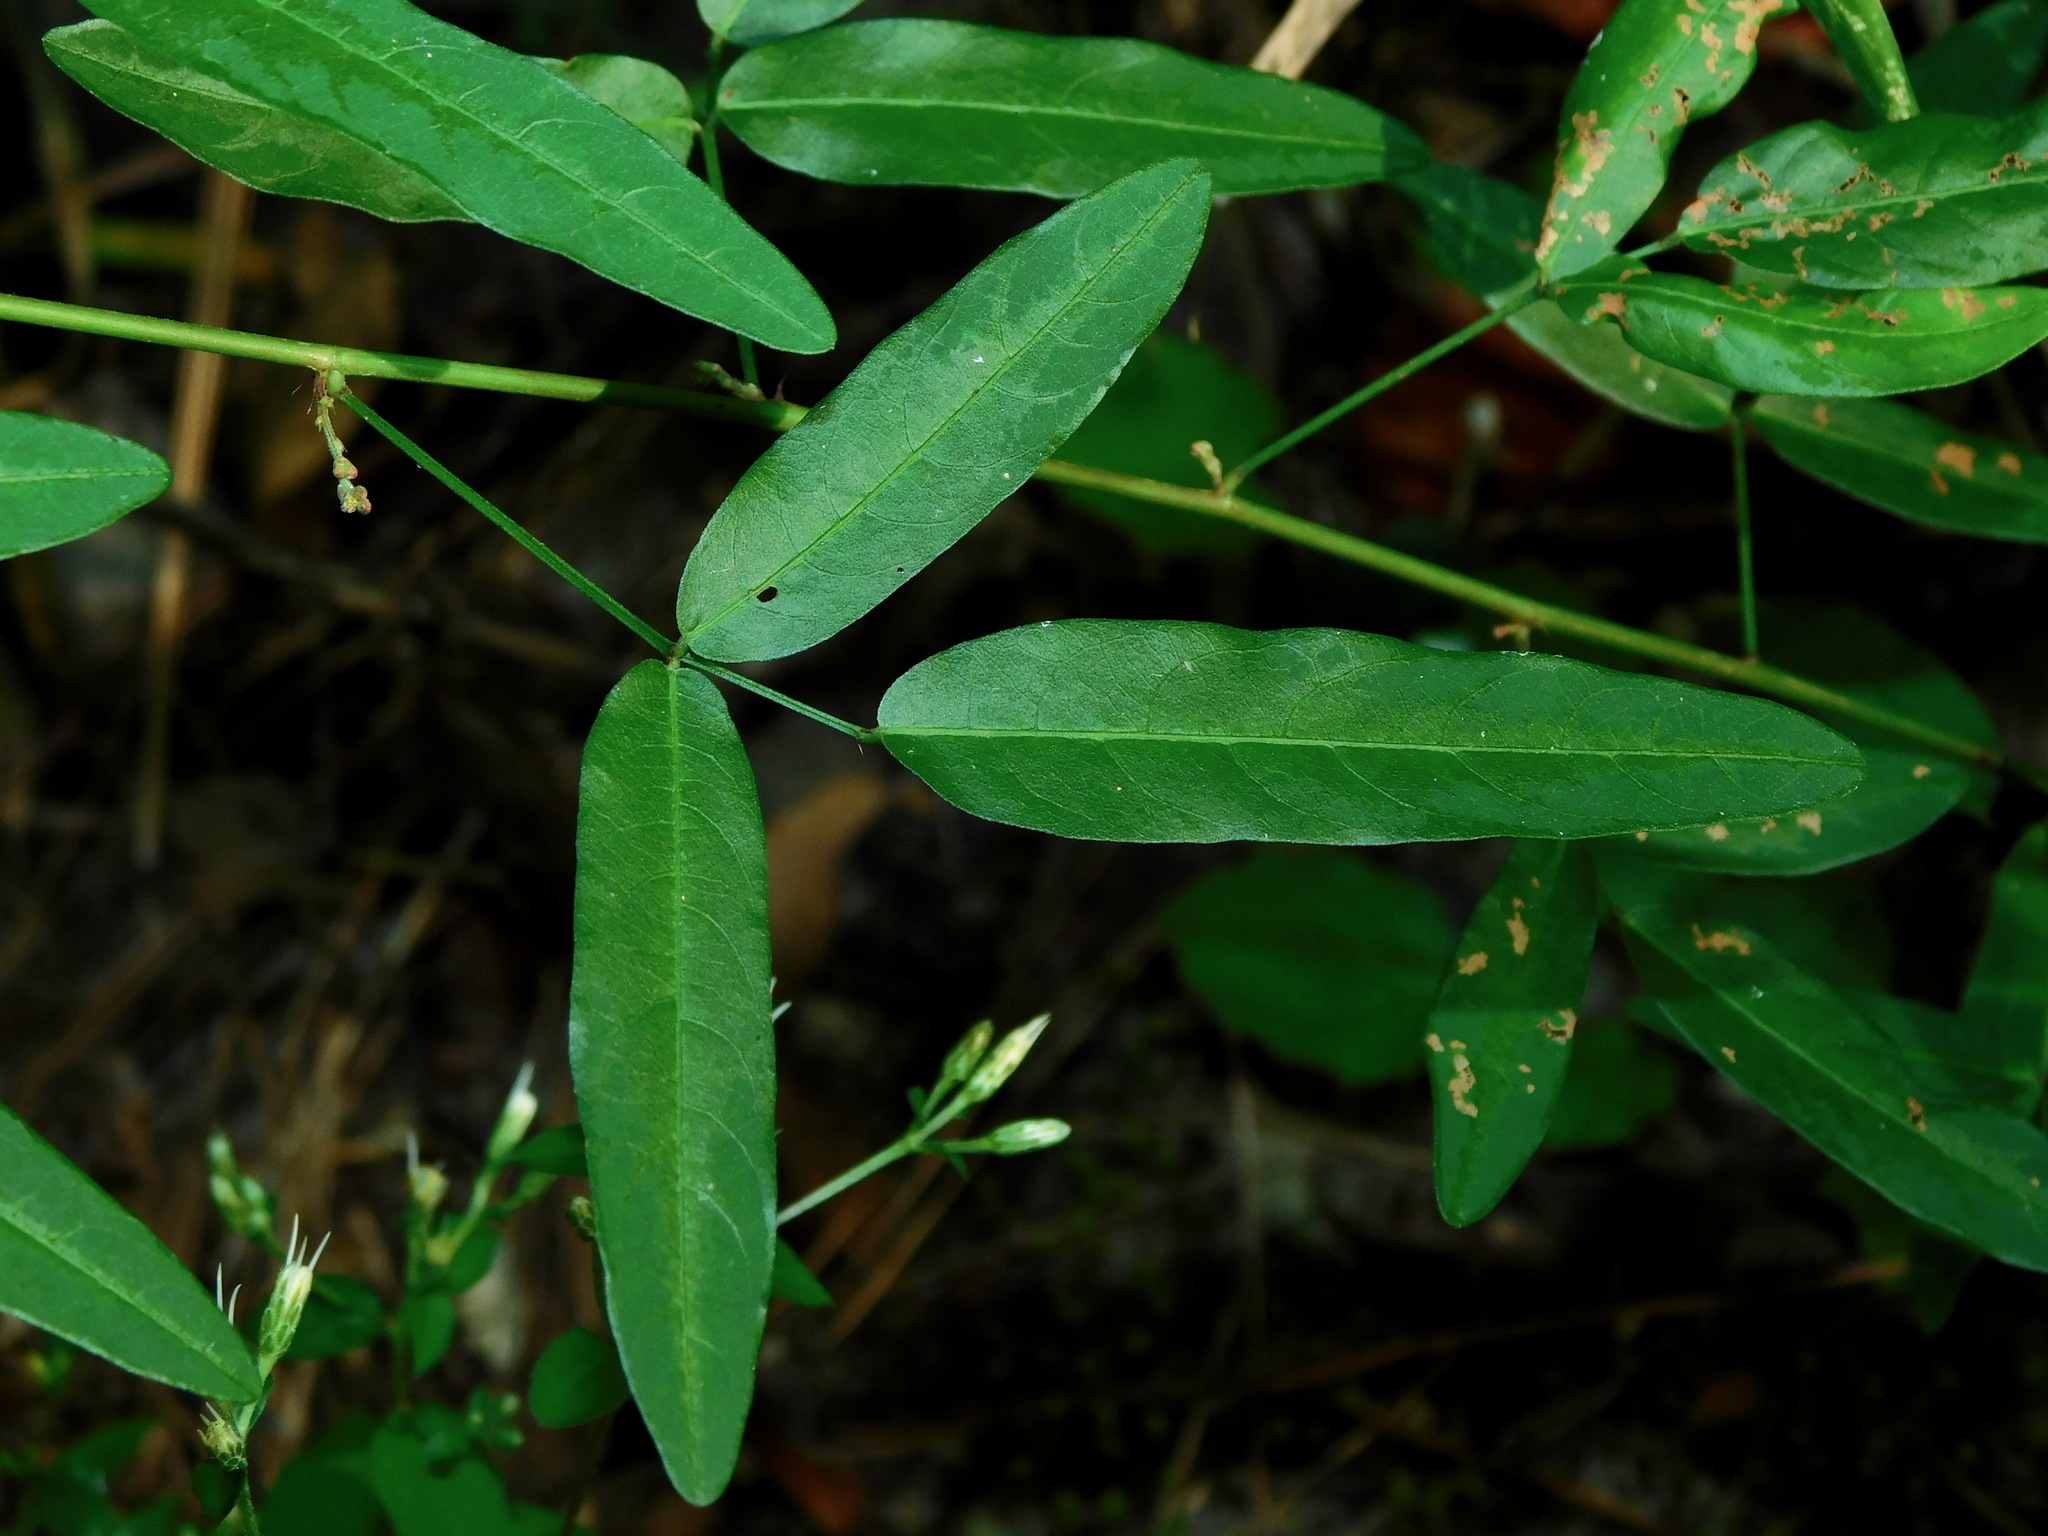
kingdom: Plantae
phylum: Tracheophyta
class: Magnoliopsida
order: Fabales
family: Fabaceae
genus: Desmodium
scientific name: Desmodium paniculatum
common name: Panicled tick-clover
